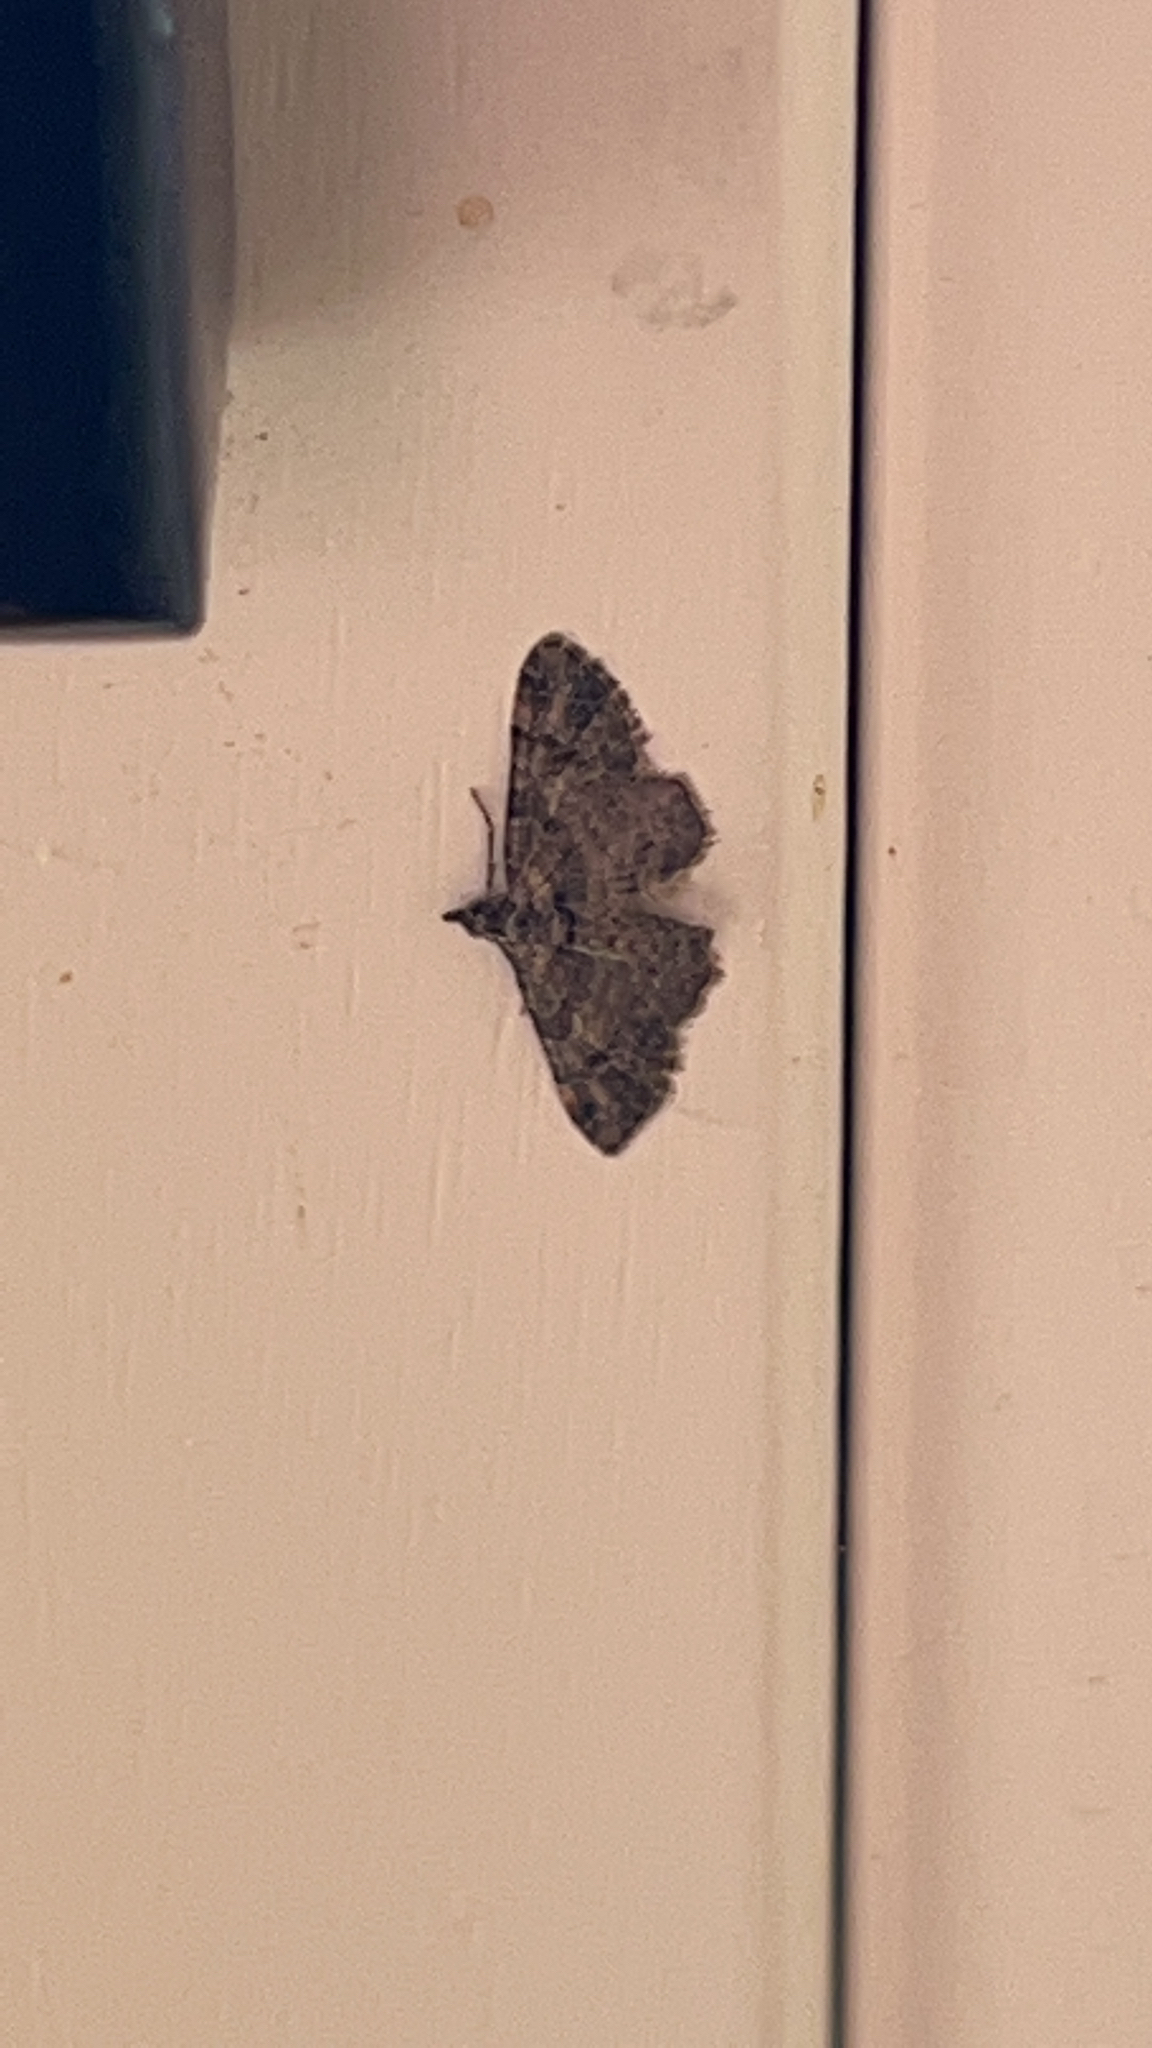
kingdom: Animalia
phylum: Arthropoda
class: Insecta
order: Lepidoptera
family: Geometridae
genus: Gymnoscelis
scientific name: Gymnoscelis rufifasciata
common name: Double-striped pug
